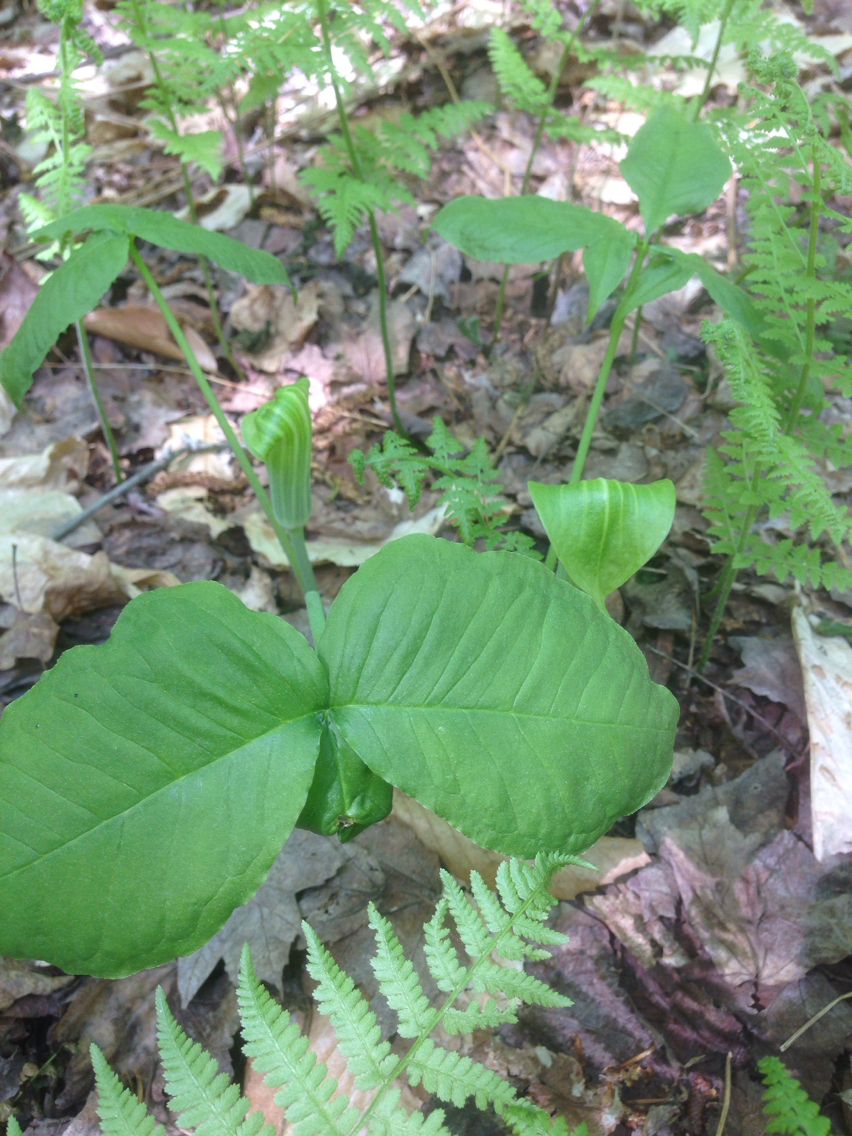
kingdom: Plantae
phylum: Tracheophyta
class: Liliopsida
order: Alismatales
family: Araceae
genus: Arisaema
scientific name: Arisaema triphyllum
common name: Jack-in-the-pulpit
